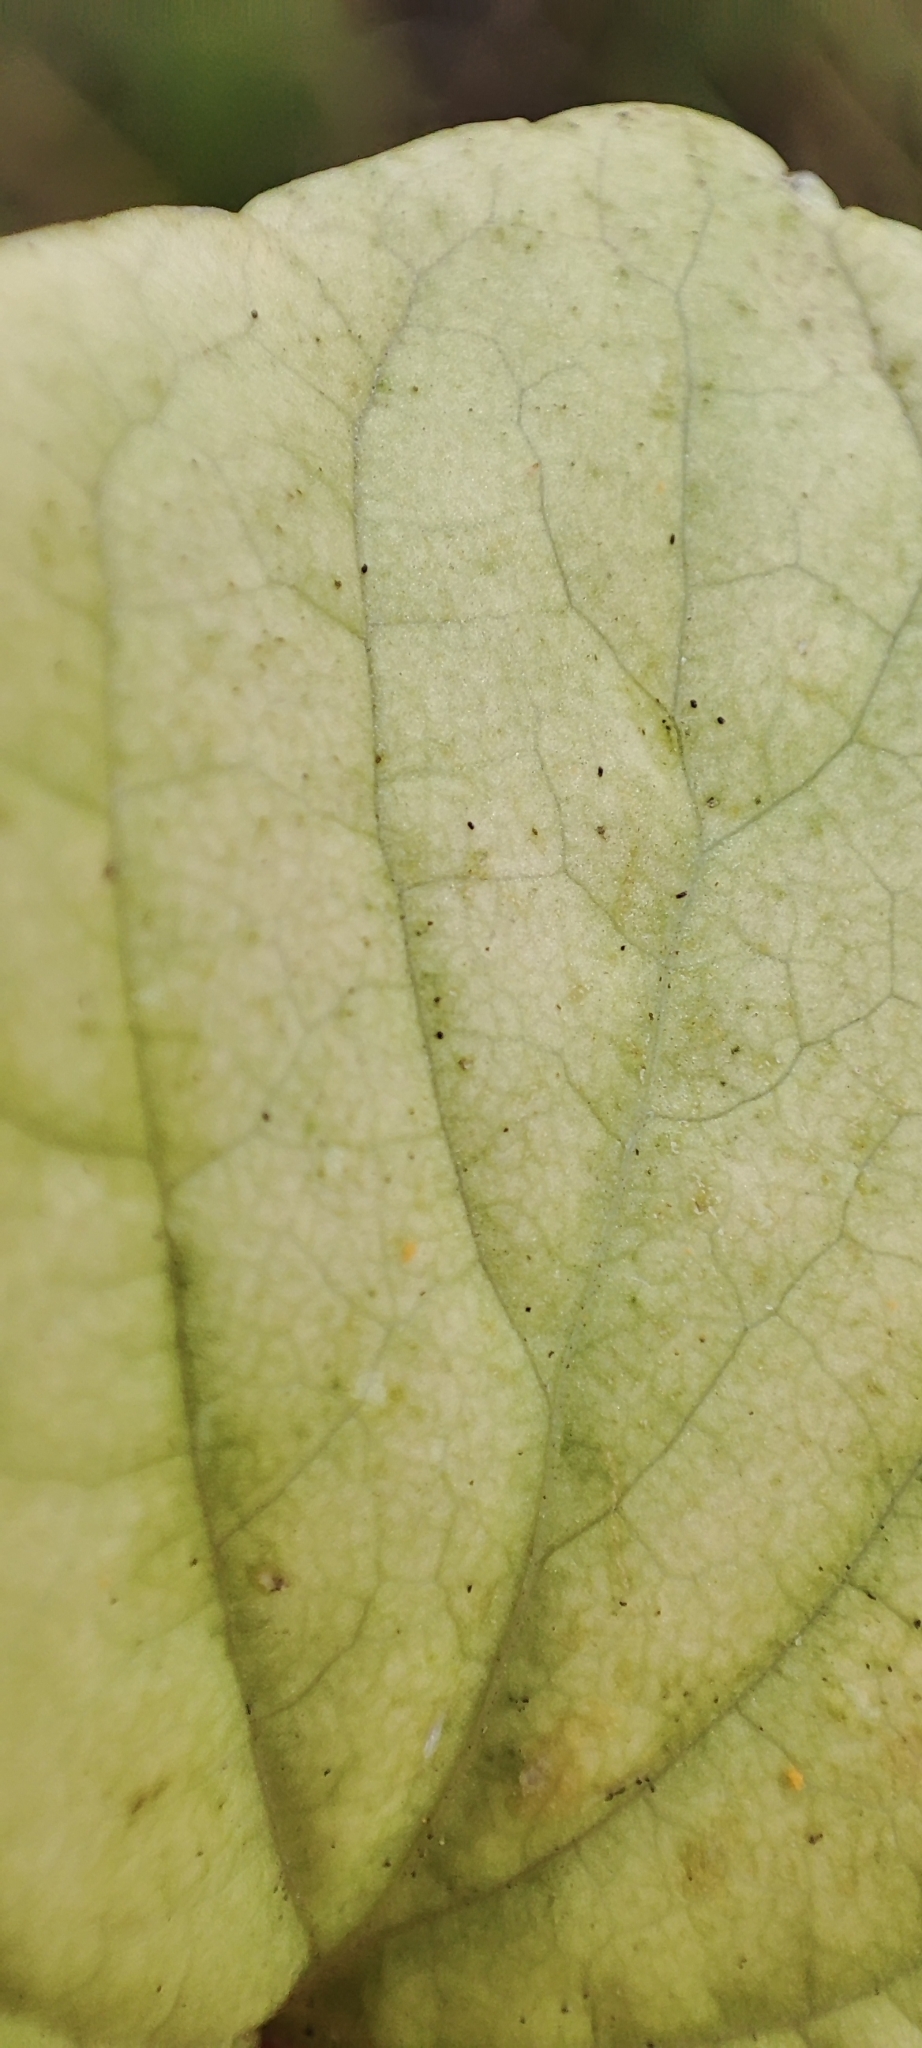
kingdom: Plantae
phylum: Tracheophyta
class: Magnoliopsida
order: Malpighiales
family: Violaceae
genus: Viola
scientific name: Viola epipsila
